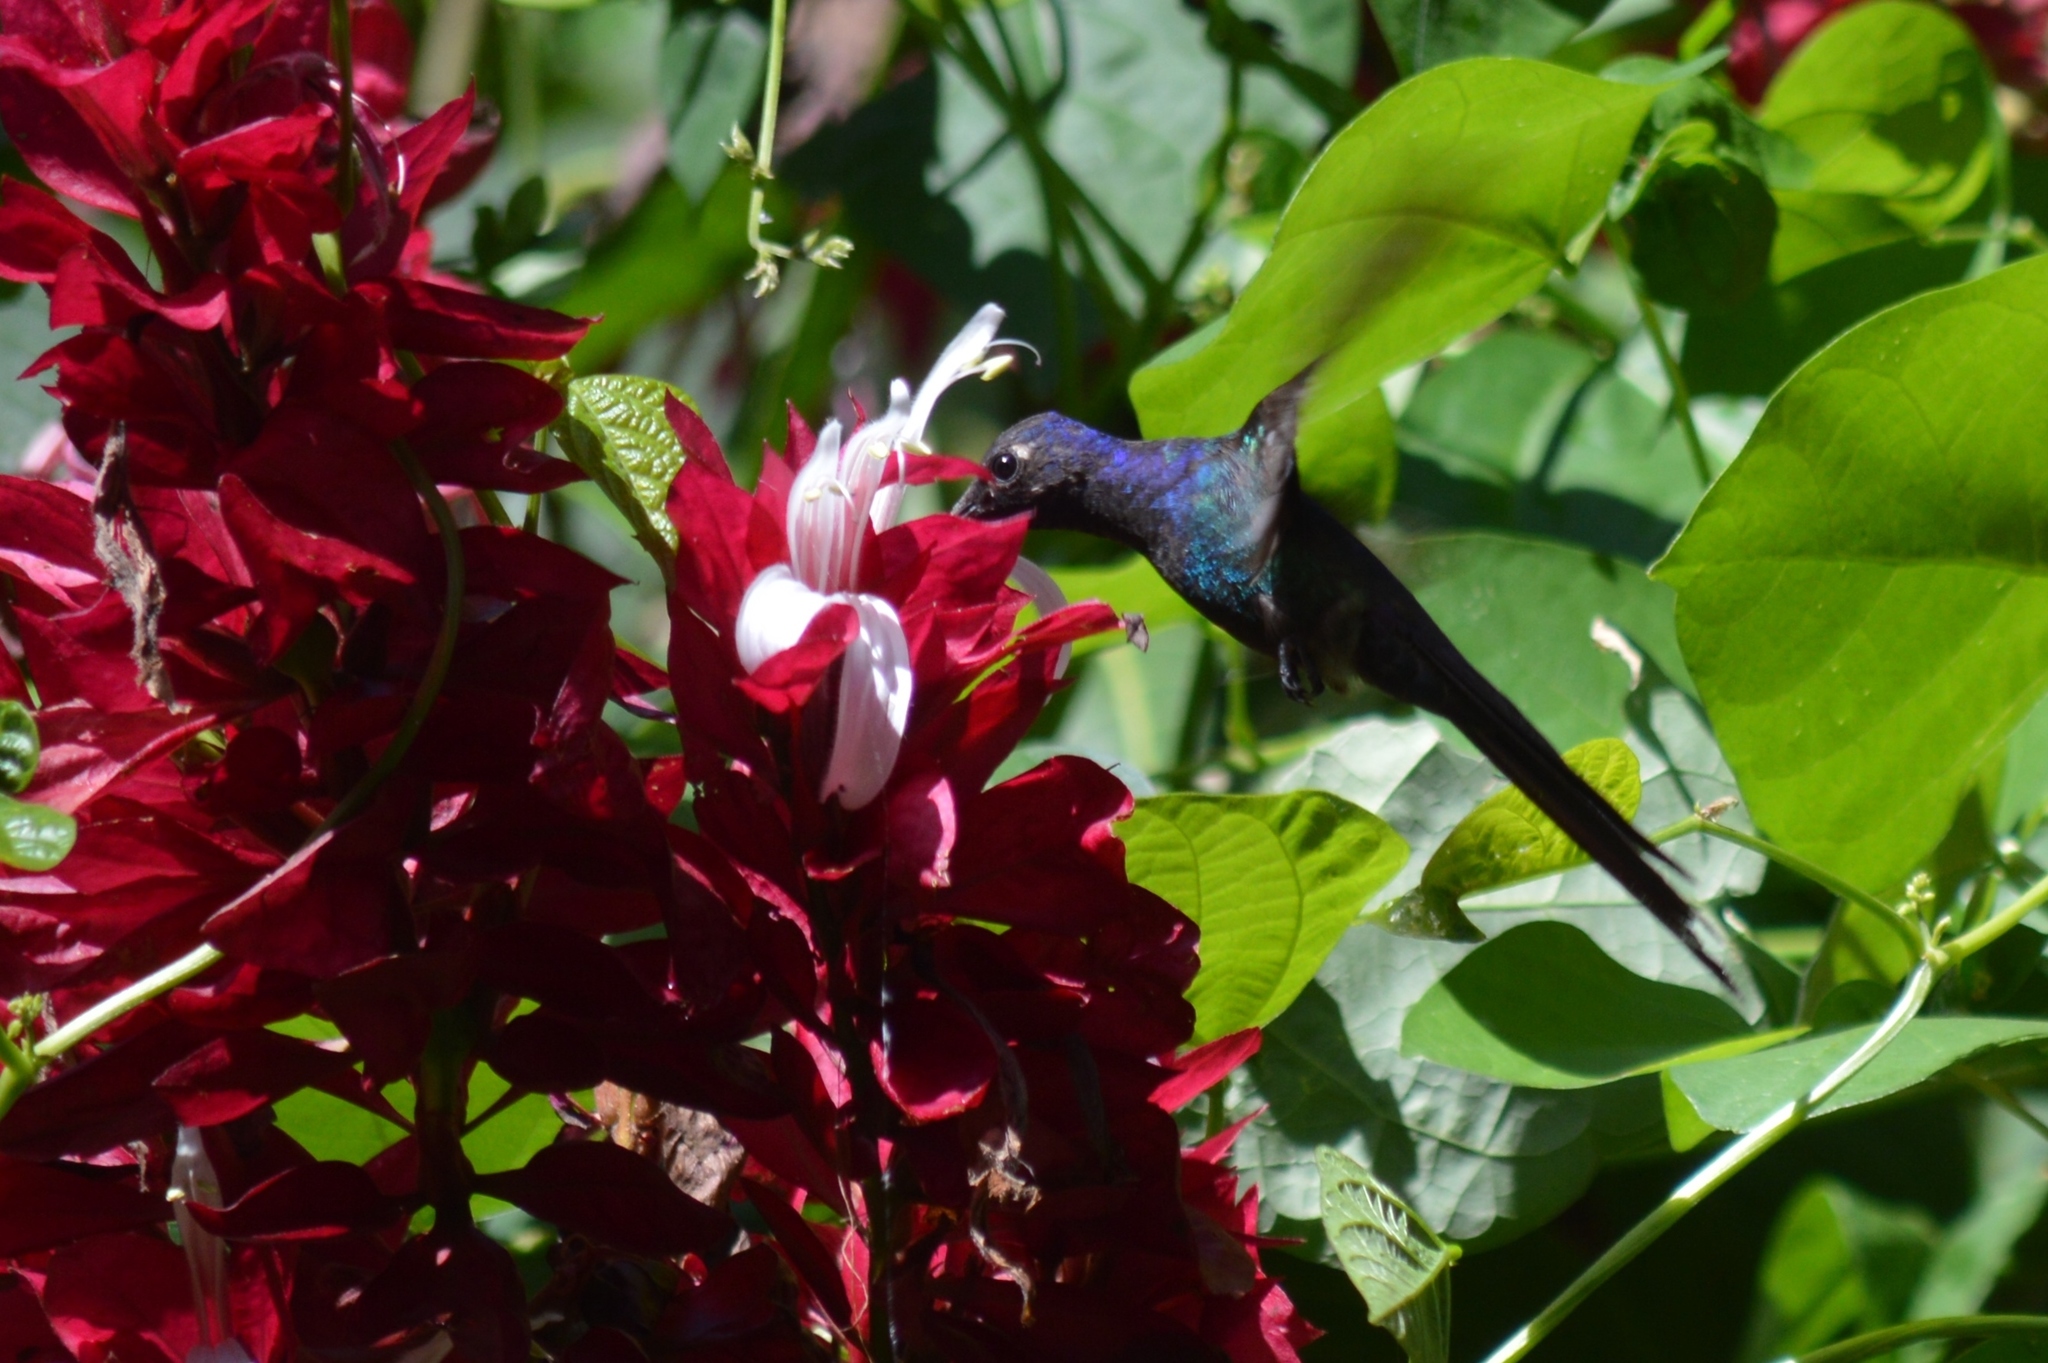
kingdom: Animalia
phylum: Chordata
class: Aves
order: Apodiformes
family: Trochilidae
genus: Eupetomena
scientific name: Eupetomena macroura
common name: Swallow-tailed hummingbird
